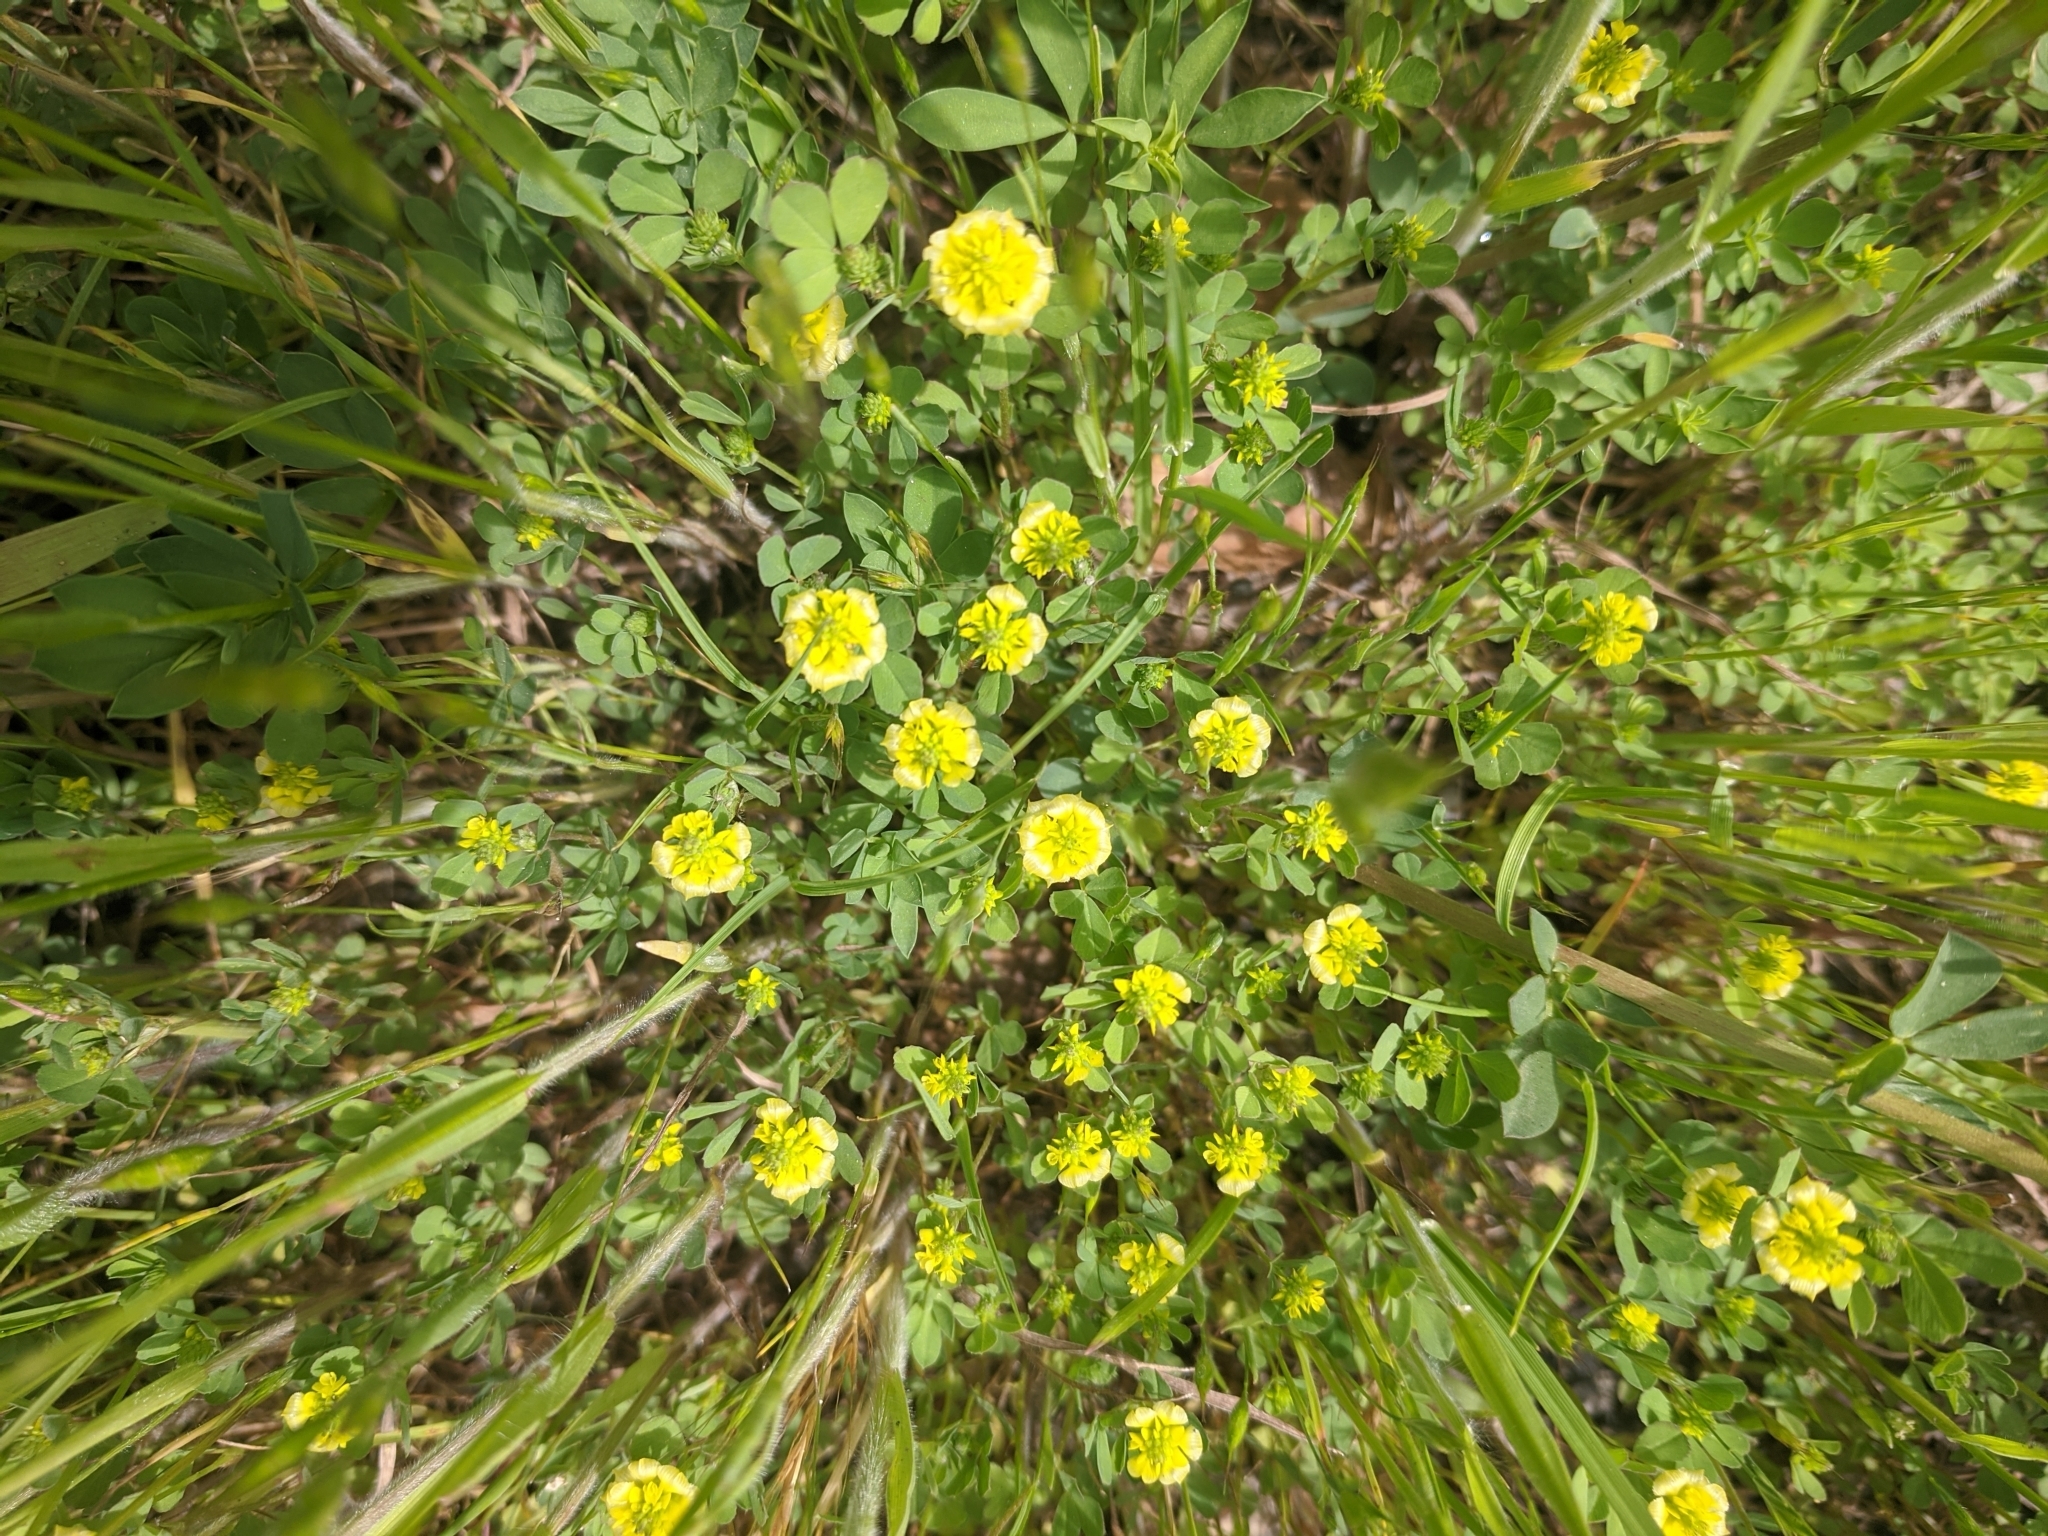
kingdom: Plantae
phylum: Tracheophyta
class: Magnoliopsida
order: Fabales
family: Fabaceae
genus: Trifolium
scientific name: Trifolium campestre
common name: Field clover
